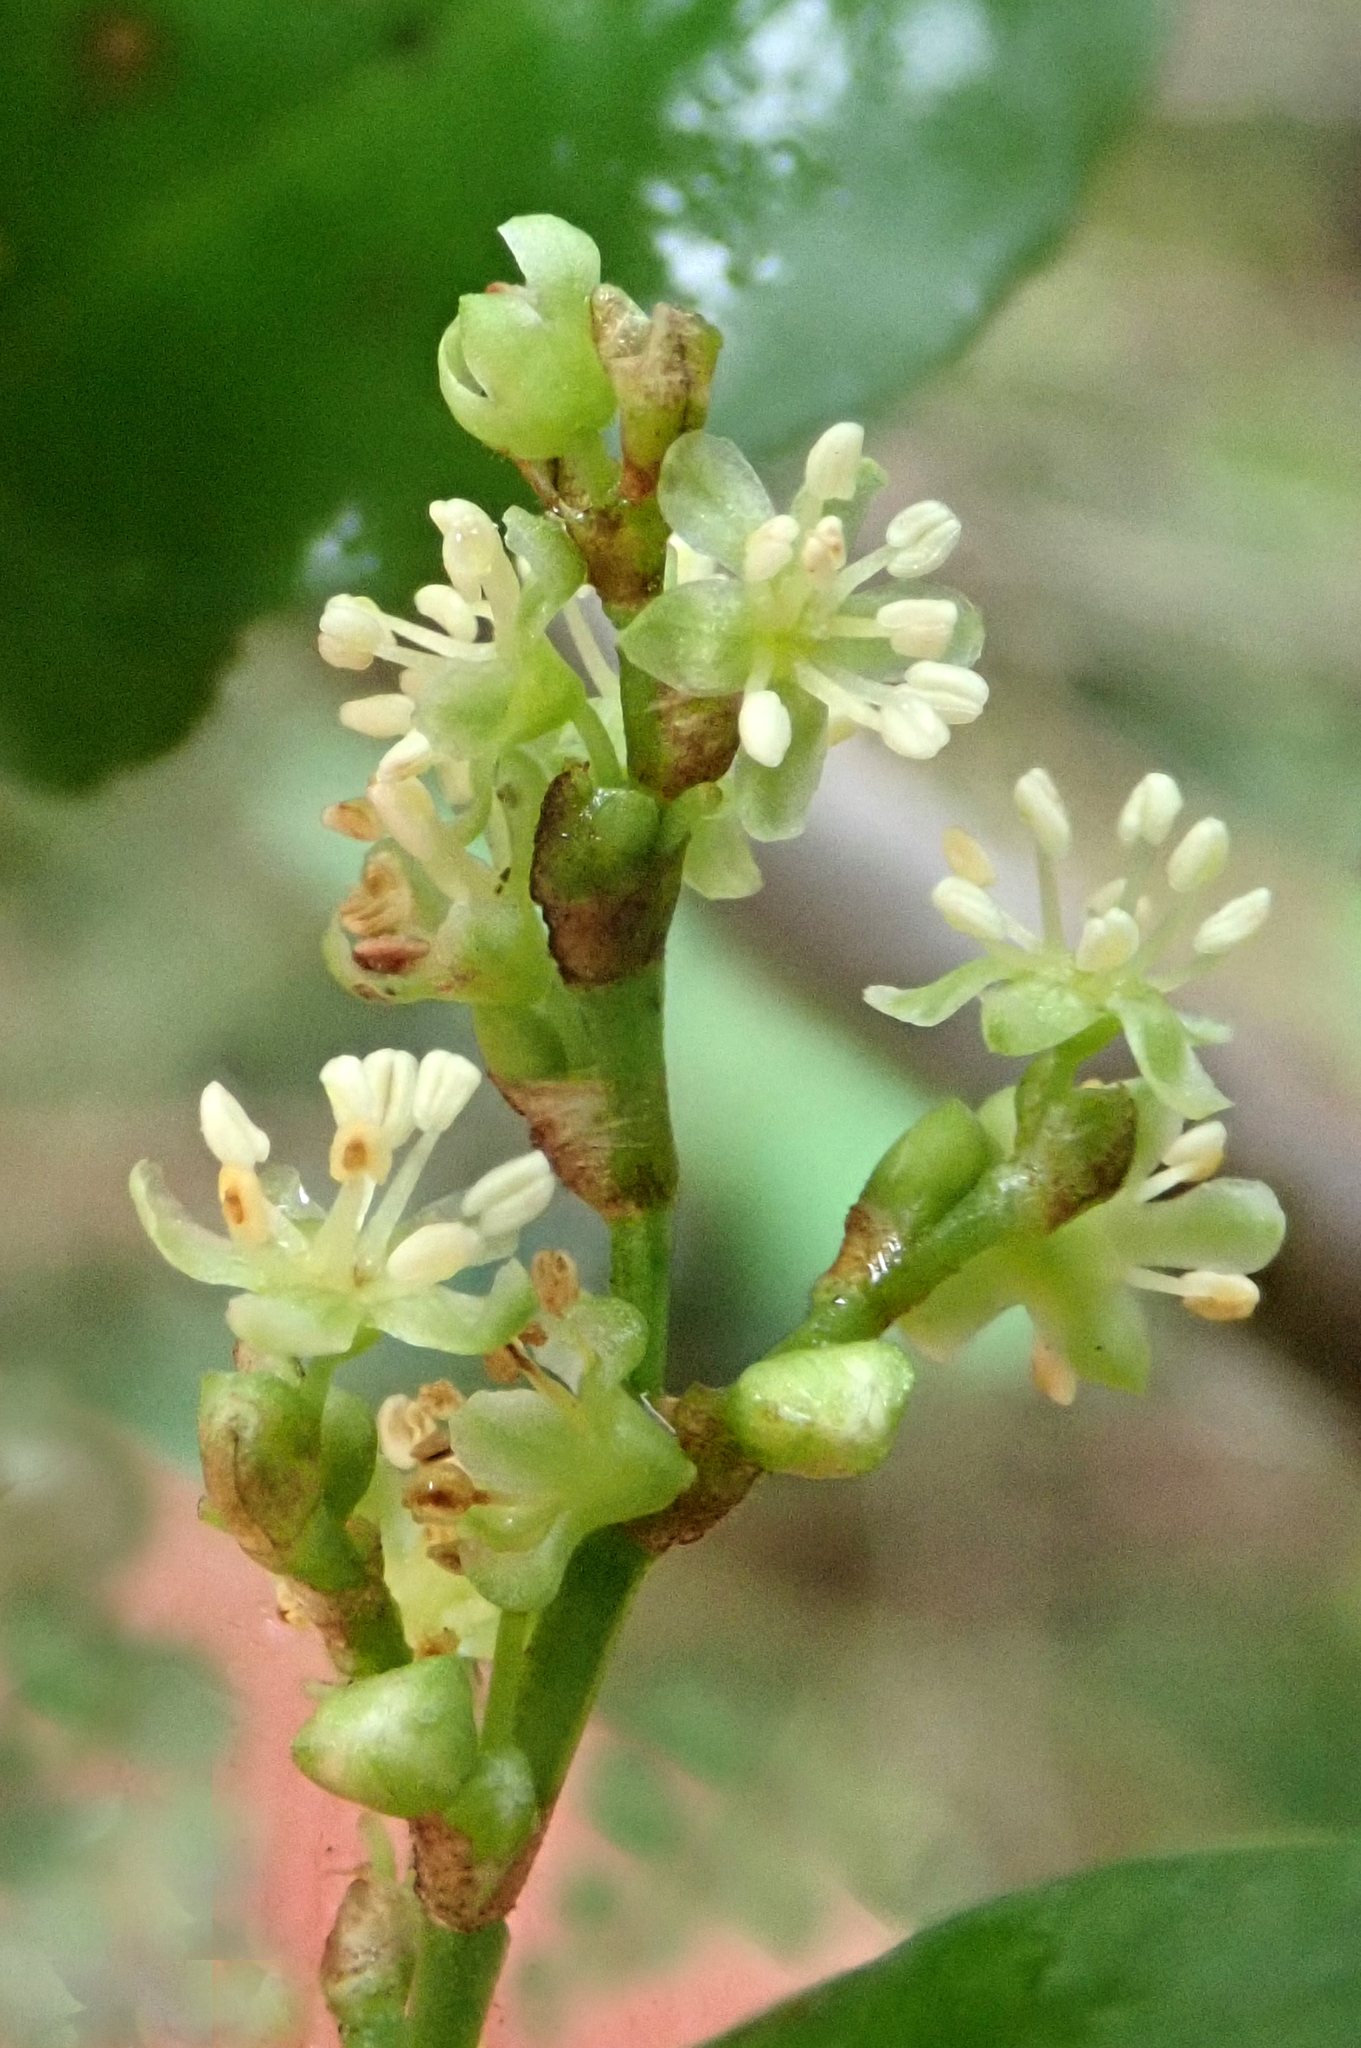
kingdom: Plantae
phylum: Tracheophyta
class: Magnoliopsida
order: Caryophyllales
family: Polygonaceae
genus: Muehlenbeckia
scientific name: Muehlenbeckia complexa
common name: Wireplant
